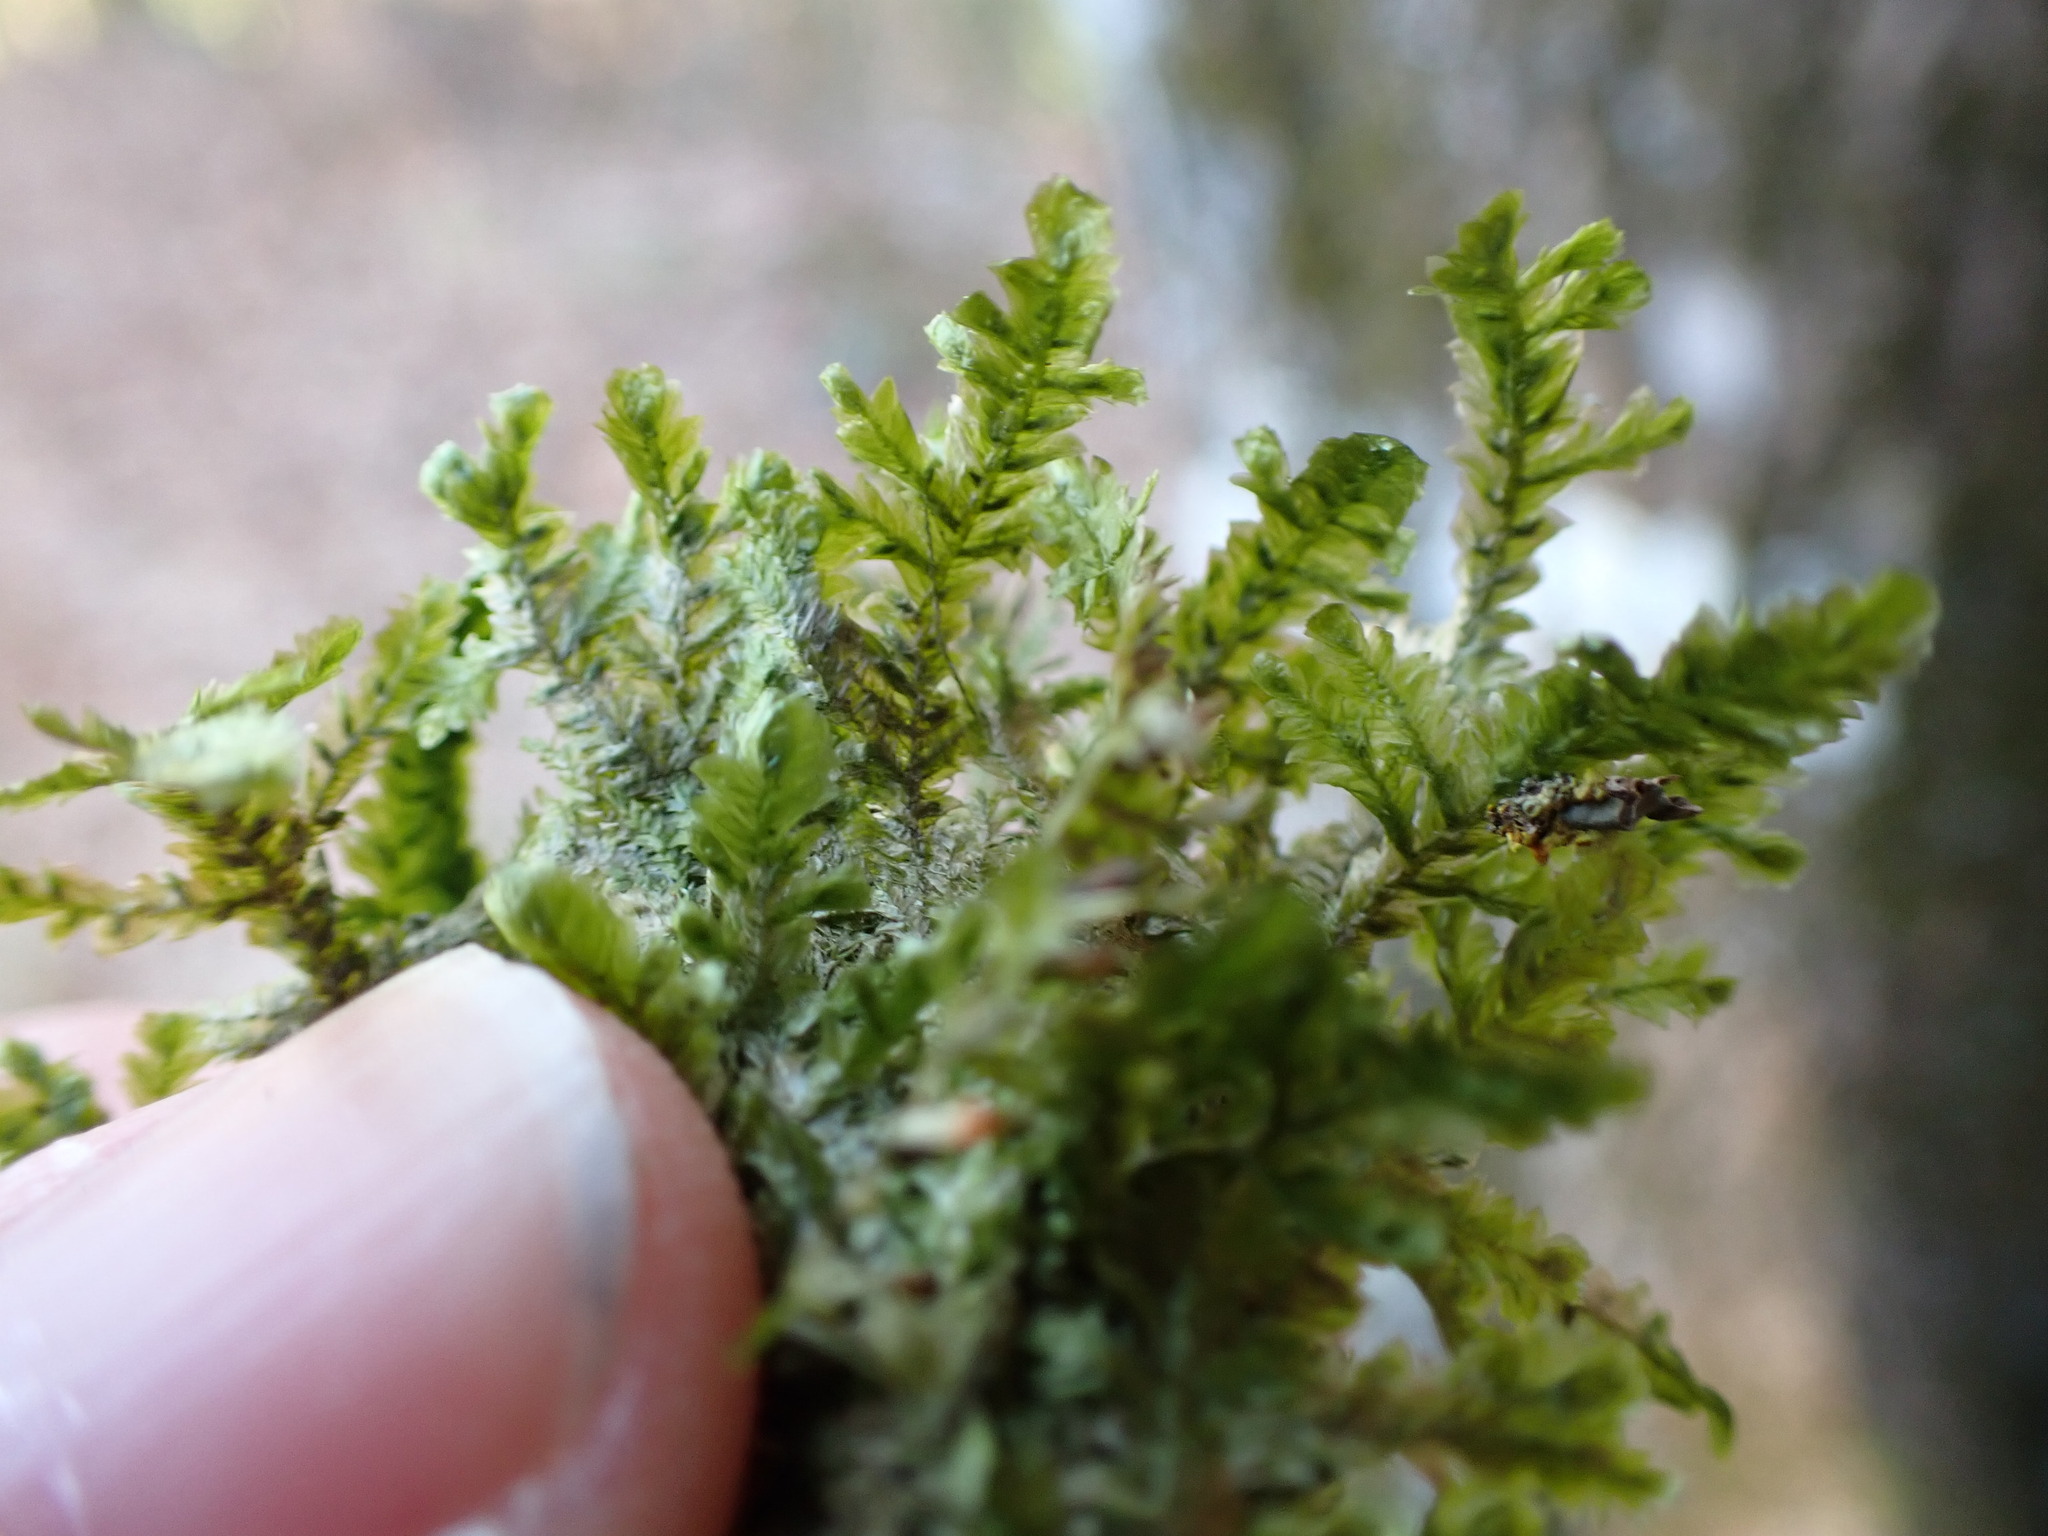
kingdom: Plantae
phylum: Bryophyta
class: Bryopsida
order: Hypnales
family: Neckeraceae
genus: Neckera
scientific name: Neckera pennata
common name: Feathery neckera
